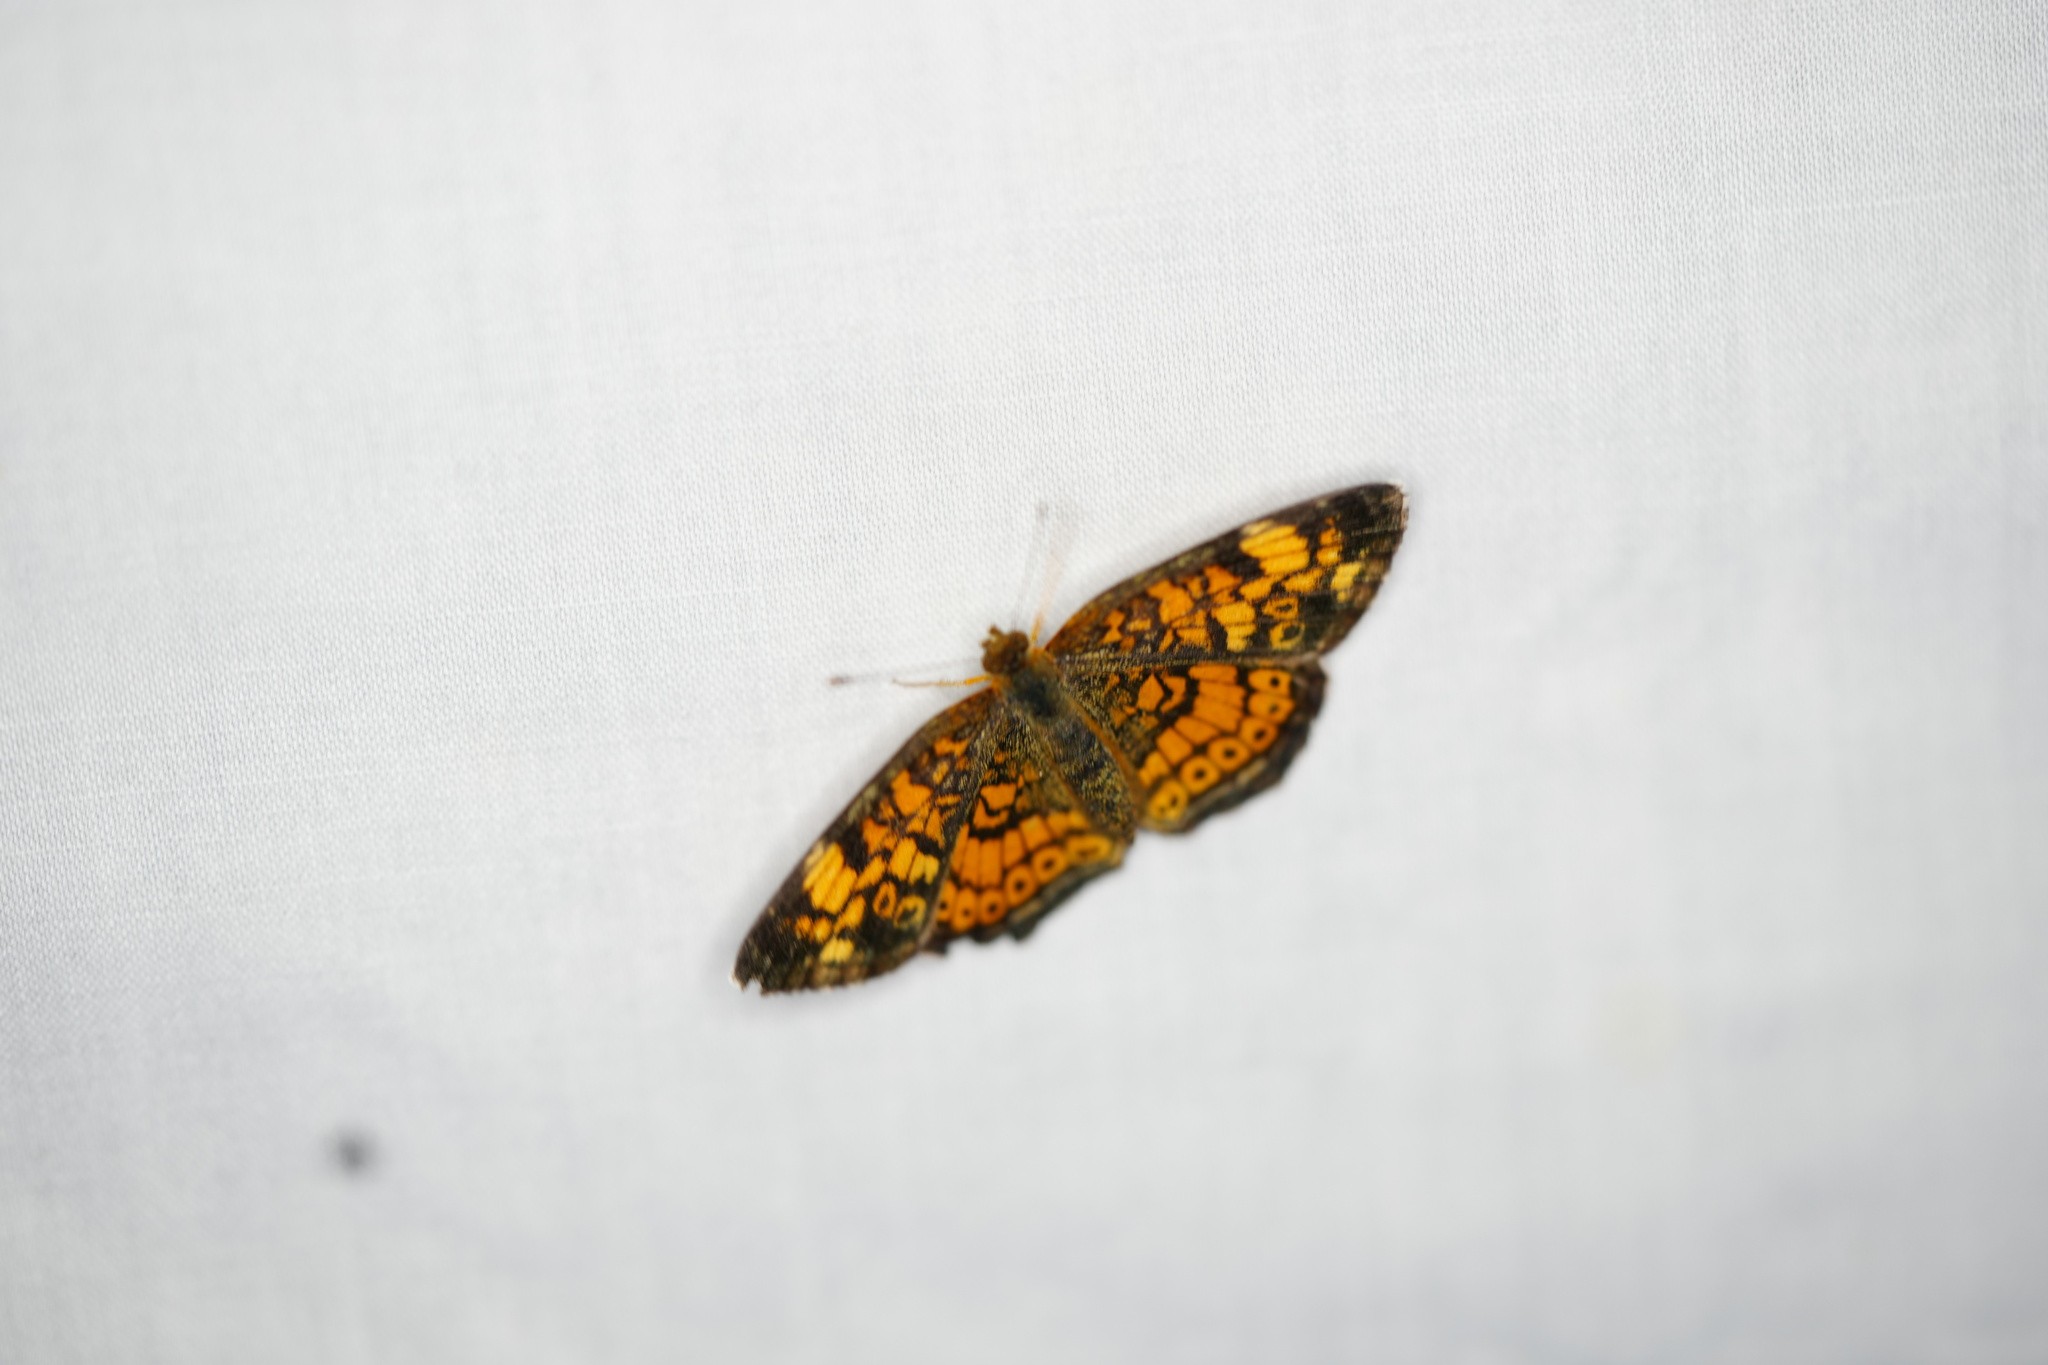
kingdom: Animalia
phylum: Arthropoda
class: Insecta
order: Lepidoptera
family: Nymphalidae
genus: Phyciodes
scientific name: Phyciodes tharos
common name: Pearl crescent
